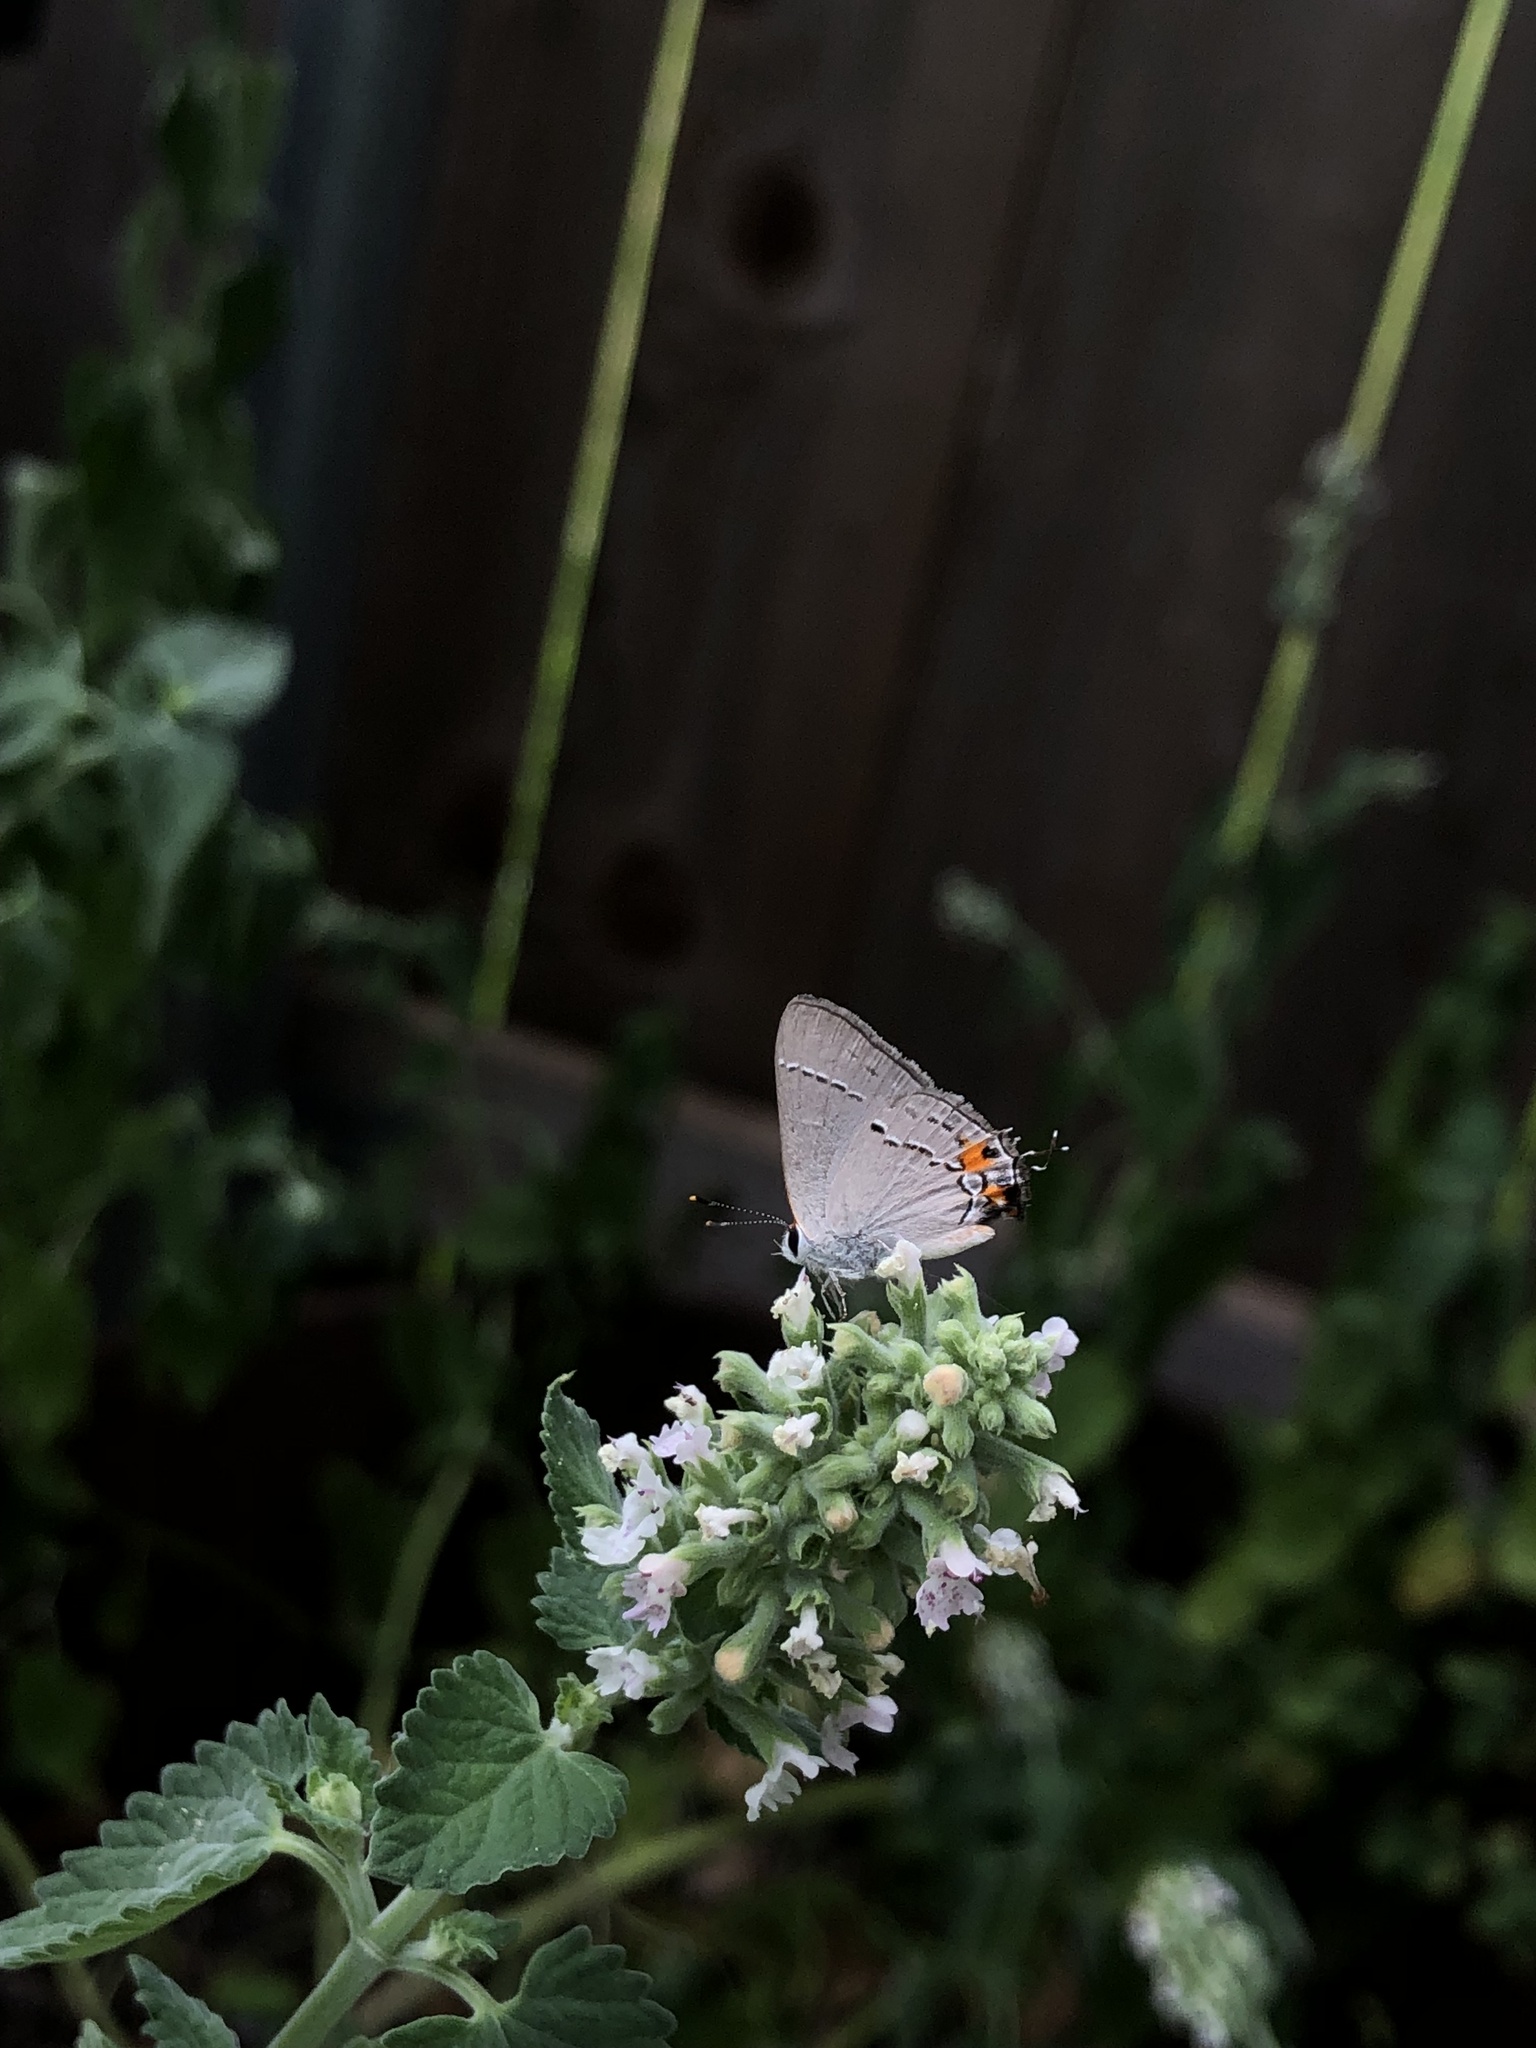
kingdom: Animalia
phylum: Arthropoda
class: Insecta
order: Lepidoptera
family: Lycaenidae
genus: Strymon
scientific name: Strymon melinus
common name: Gray hairstreak
